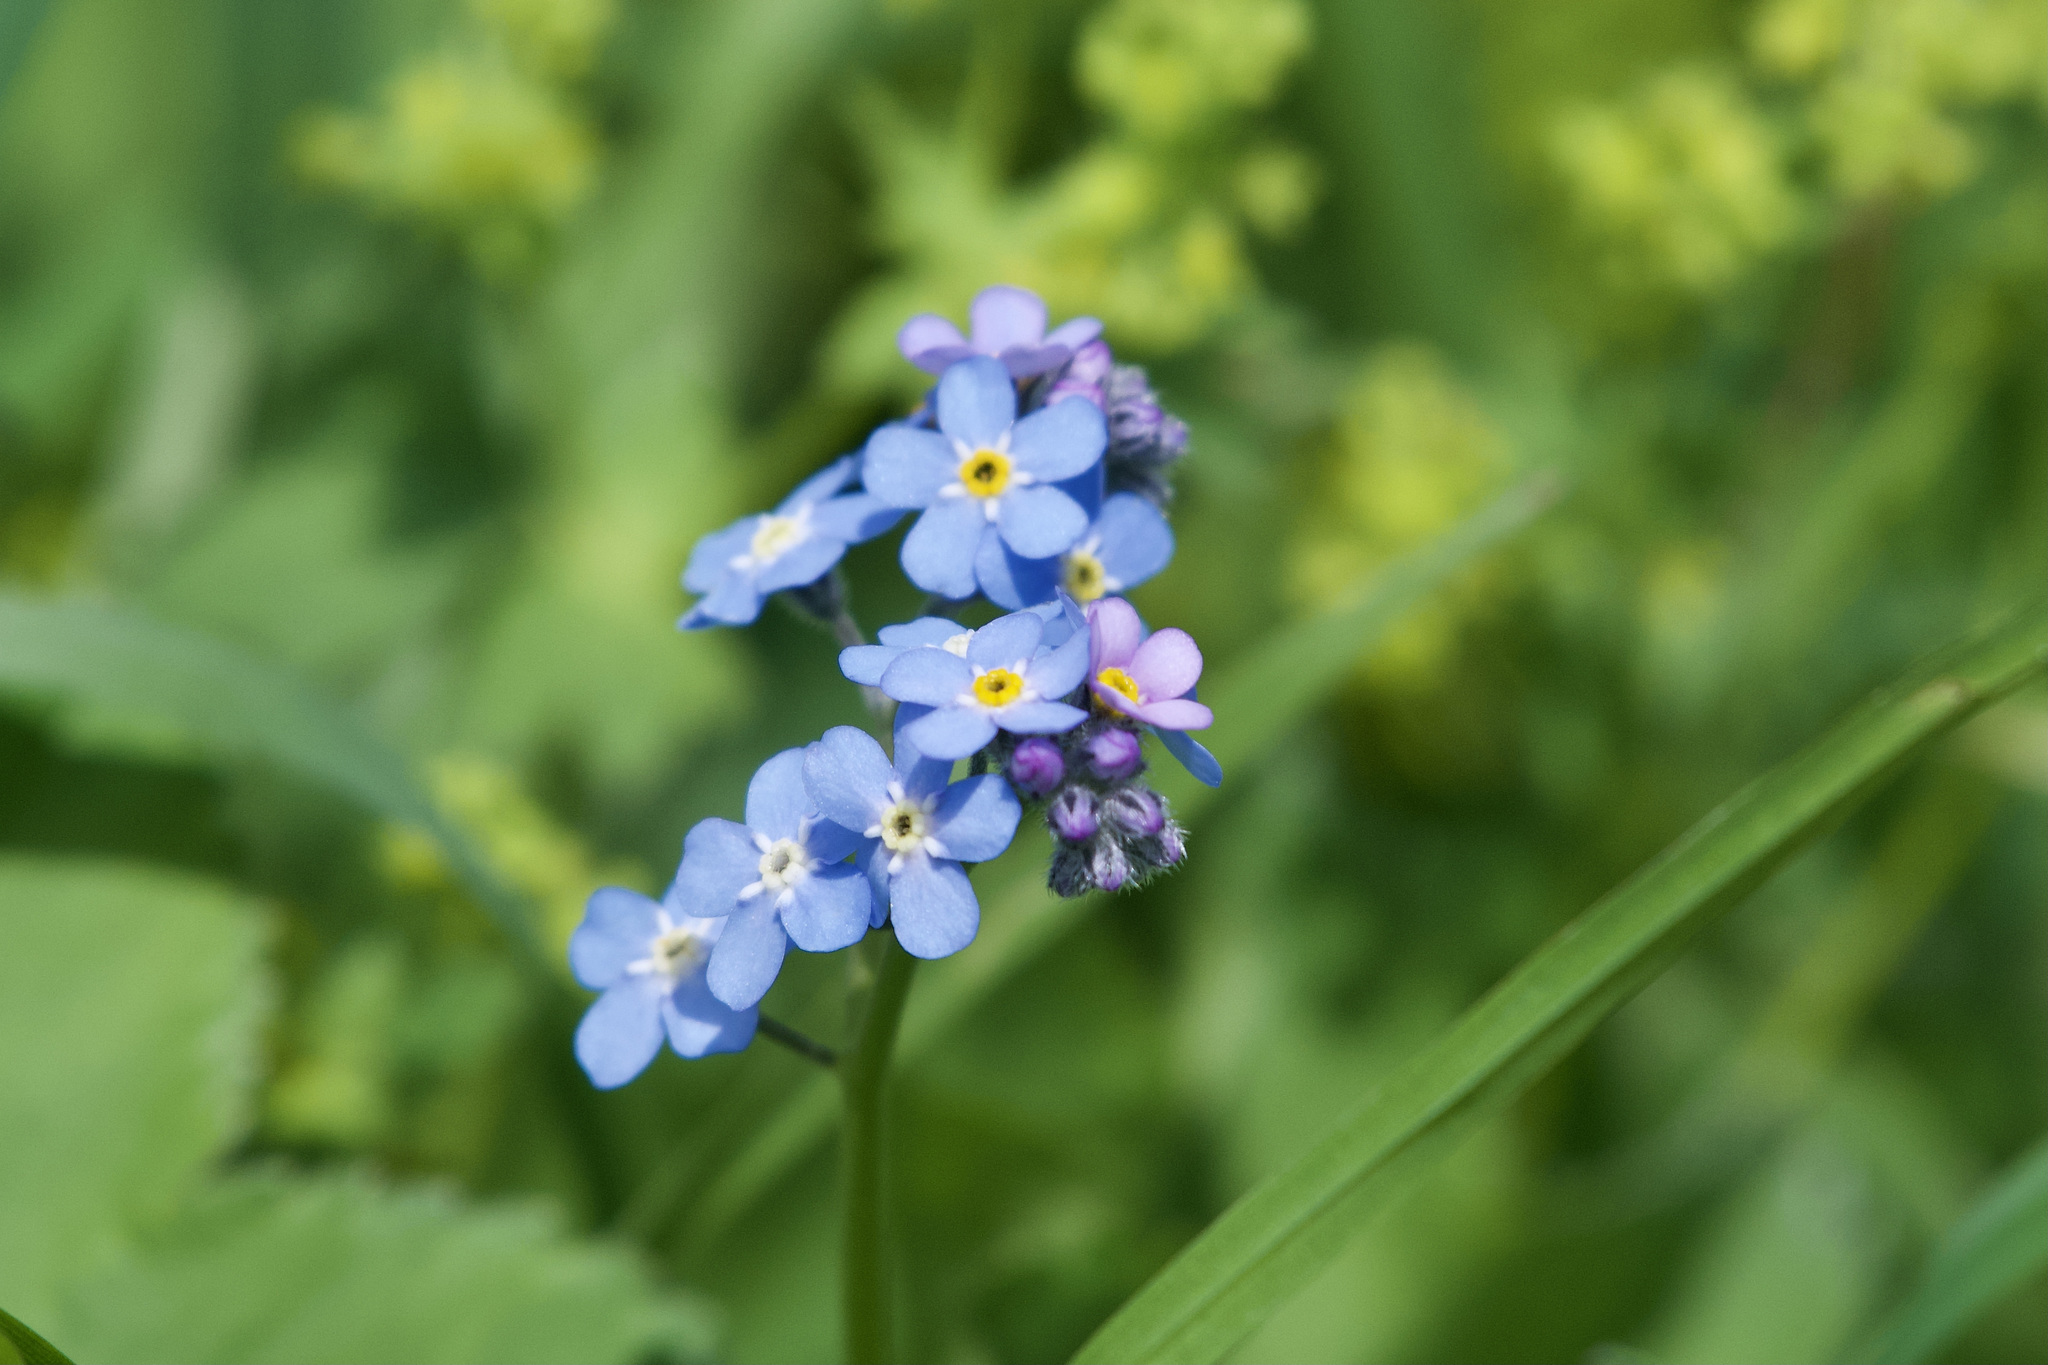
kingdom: Plantae
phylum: Tracheophyta
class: Magnoliopsida
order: Boraginales
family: Boraginaceae
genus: Myosotis
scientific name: Myosotis alpestris
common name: Alpine forget-me-not
